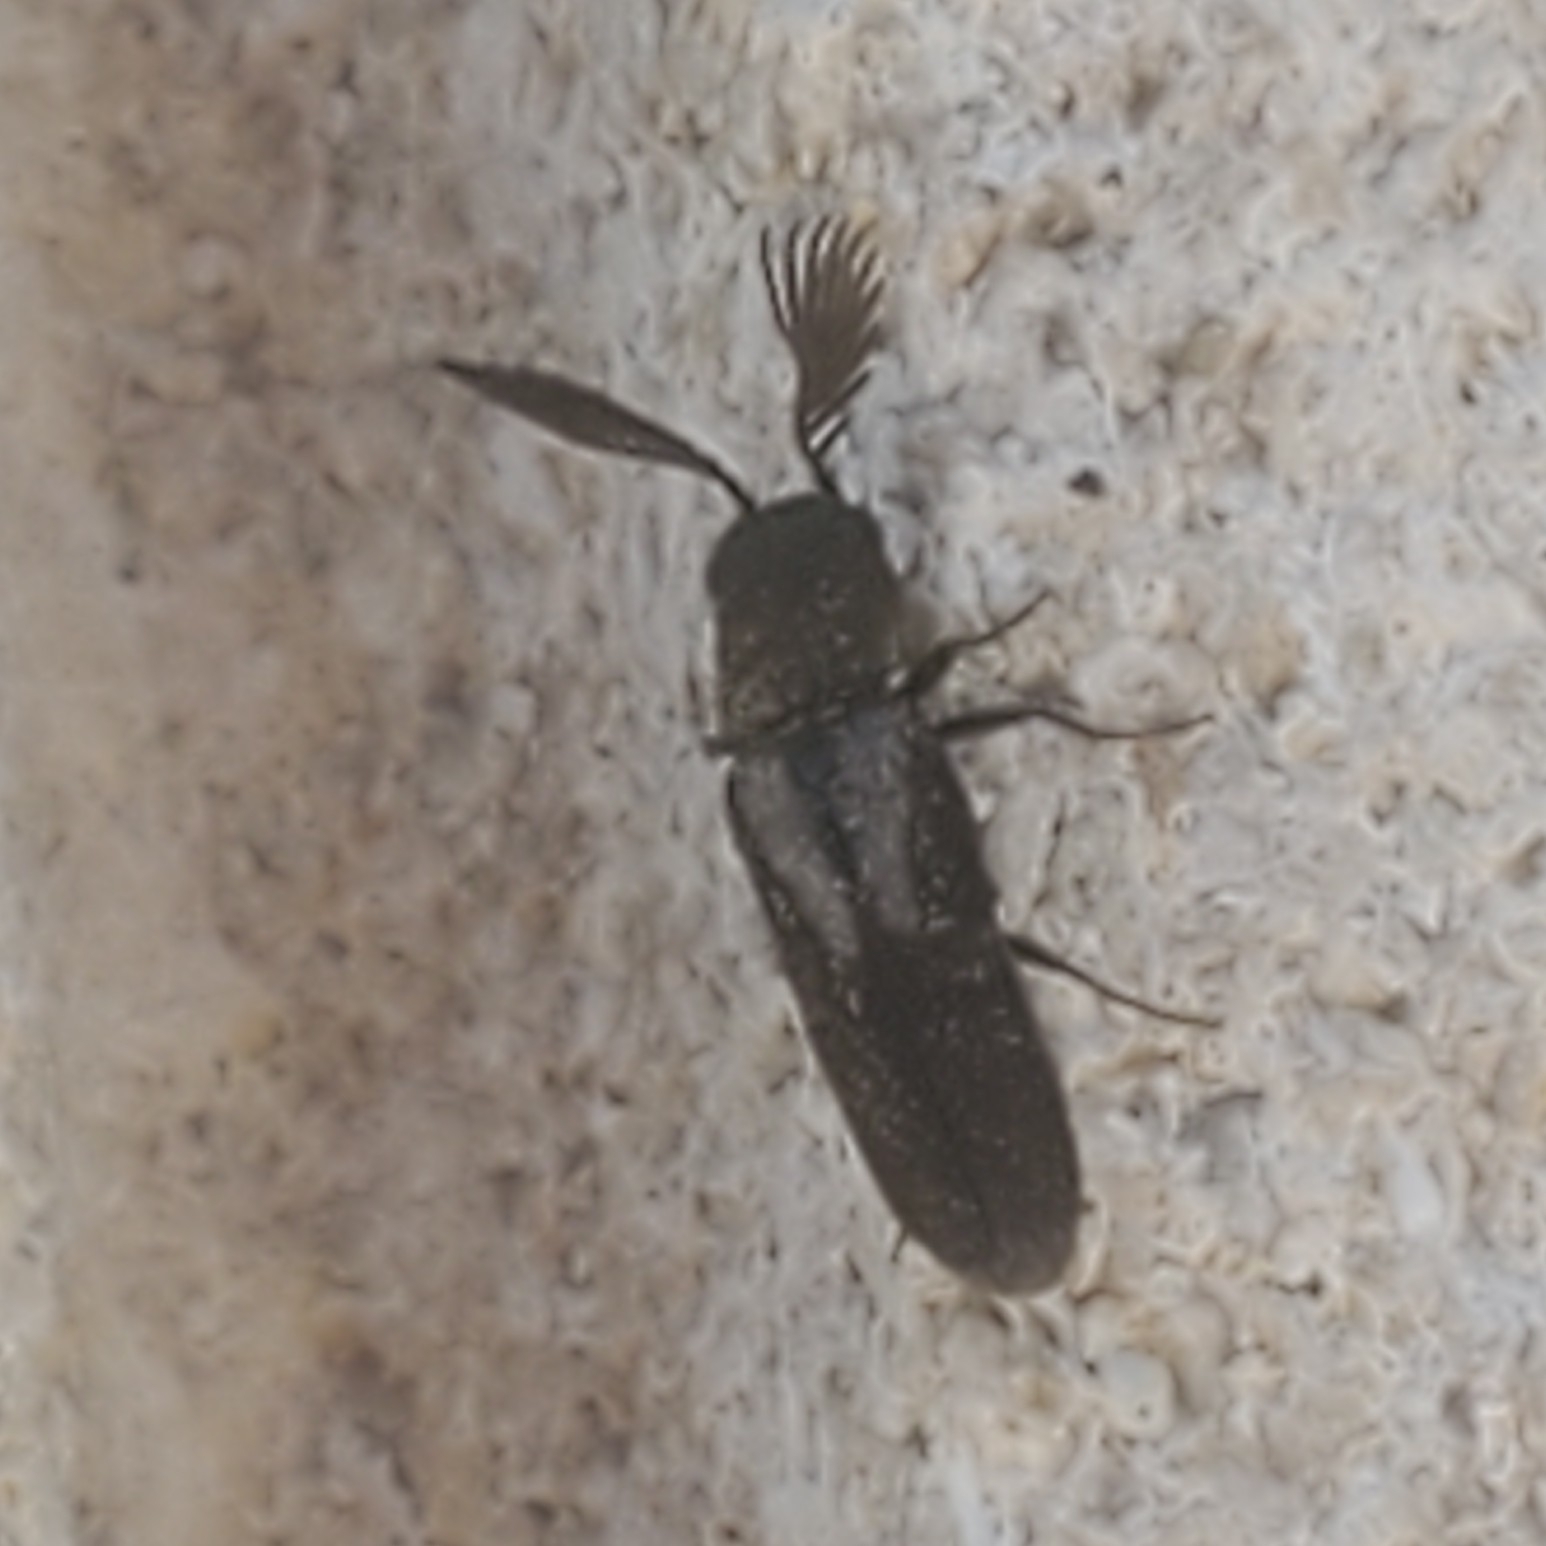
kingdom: Animalia
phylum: Arthropoda
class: Insecta
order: Coleoptera
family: Eucnemidae
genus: Isorhipis
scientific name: Isorhipis obliqua
